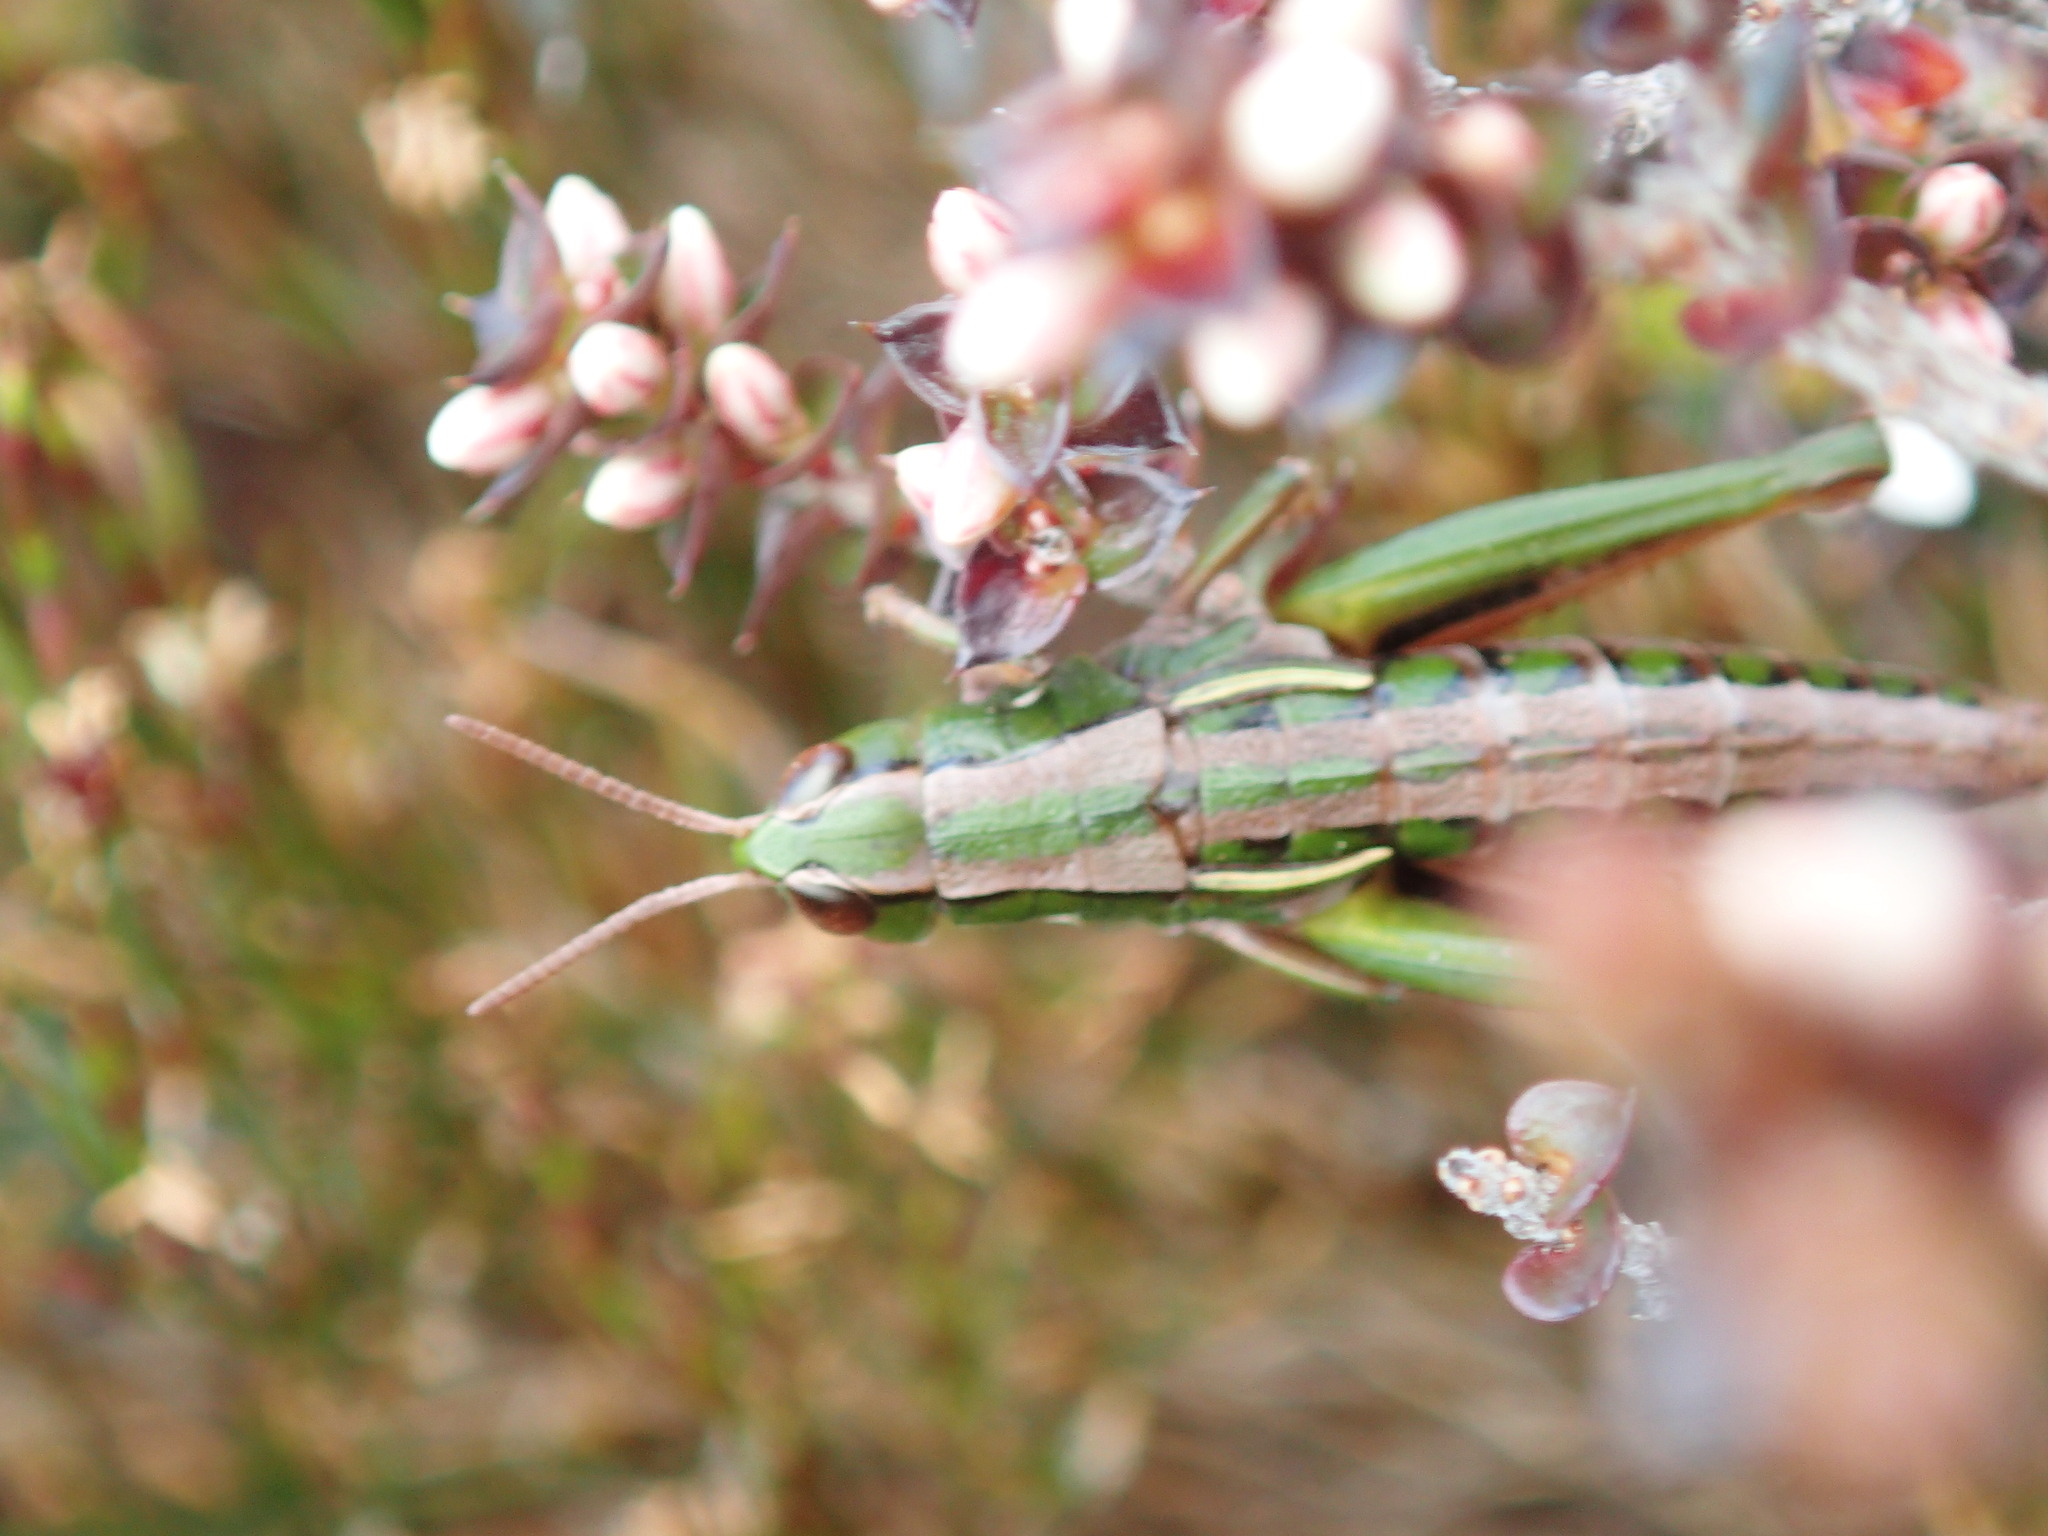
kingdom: Animalia
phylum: Arthropoda
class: Insecta
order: Orthoptera
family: Acrididae
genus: Russalpia
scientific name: Russalpia albertisi
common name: Tassie hopper
